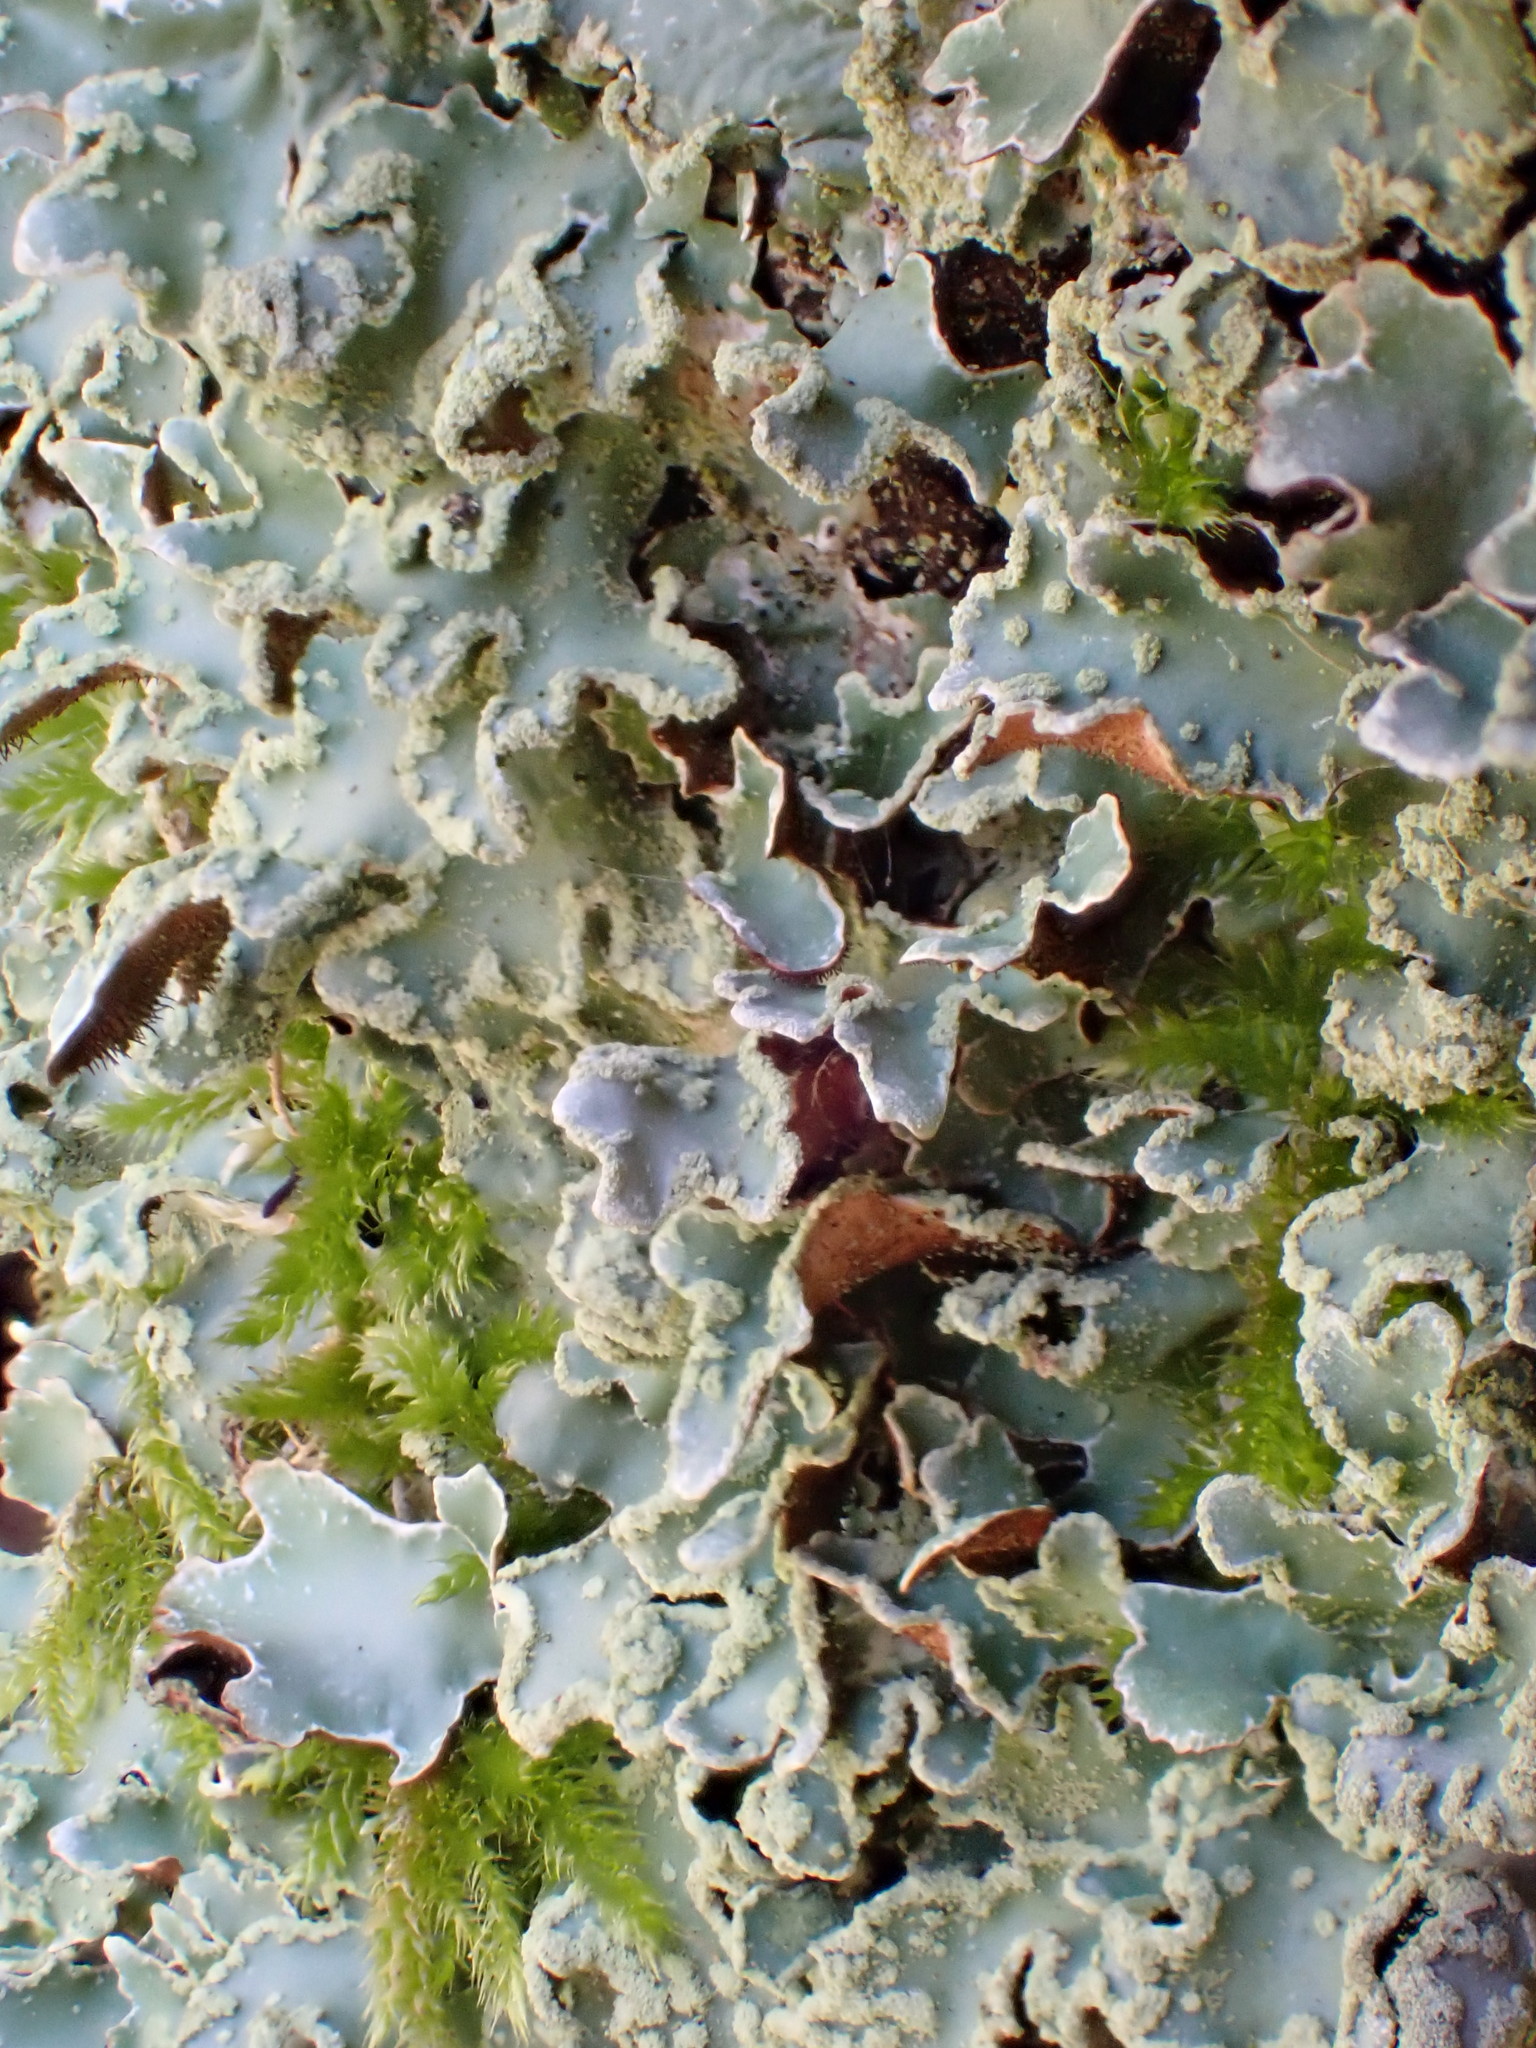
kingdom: Fungi
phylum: Ascomycota
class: Lecanoromycetes
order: Lecanorales
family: Parmeliaceae
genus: Parmelia
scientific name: Parmelia sulcata
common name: Netted shield lichen
